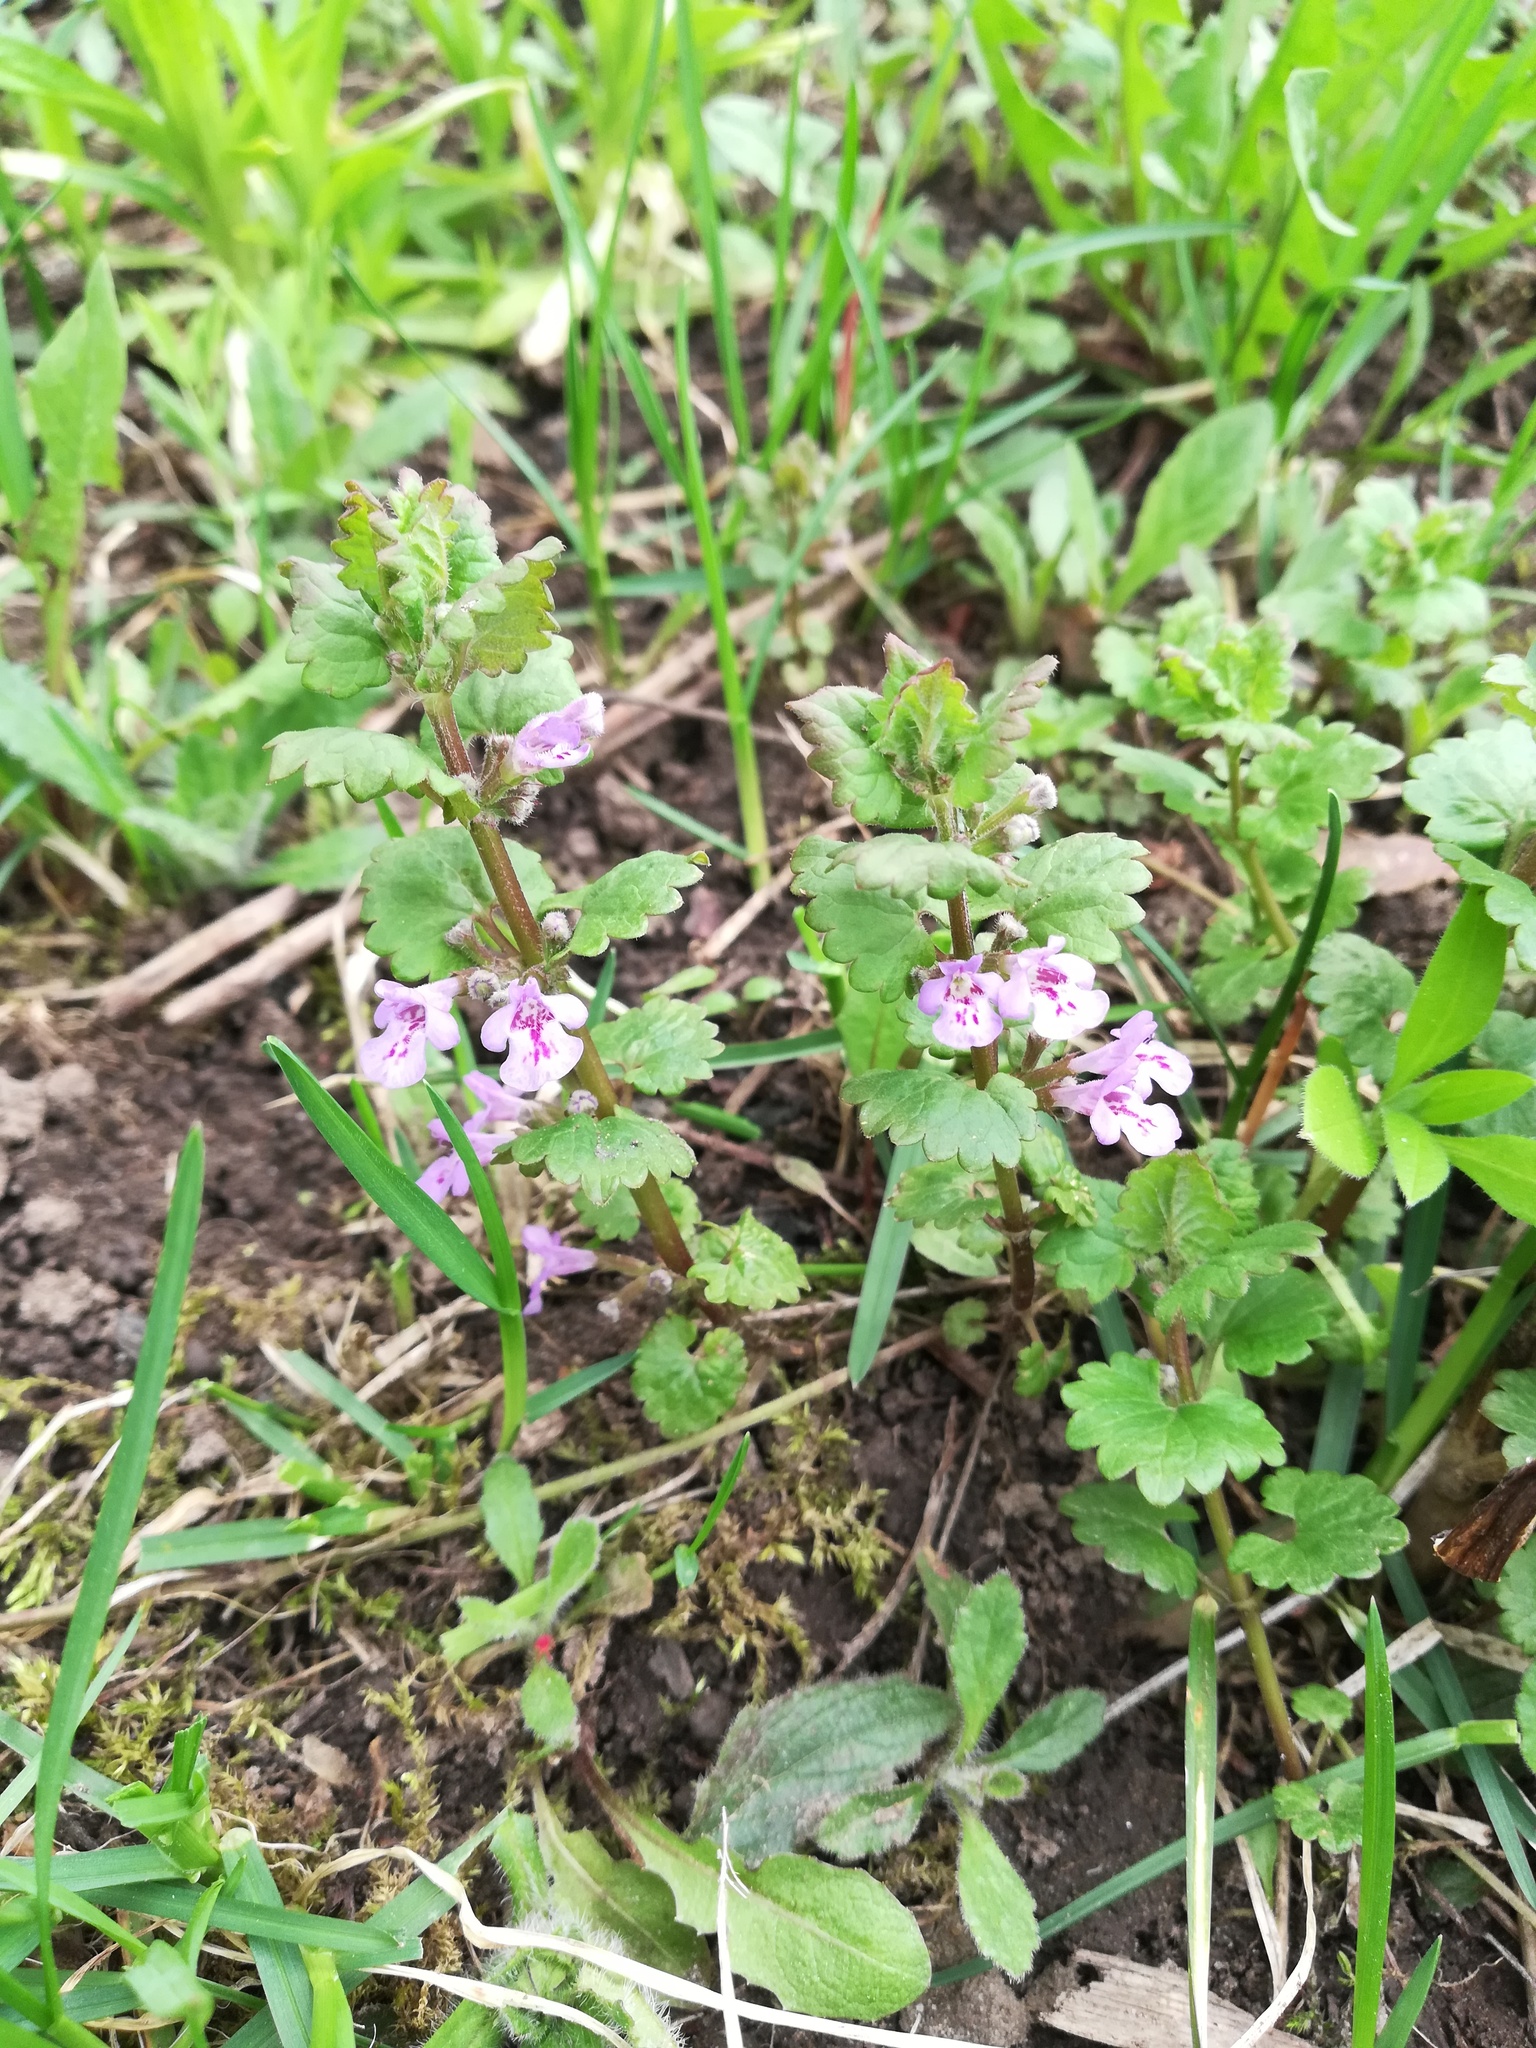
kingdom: Plantae
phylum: Tracheophyta
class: Magnoliopsida
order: Lamiales
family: Lamiaceae
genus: Glechoma
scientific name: Glechoma hederacea
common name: Ground ivy
